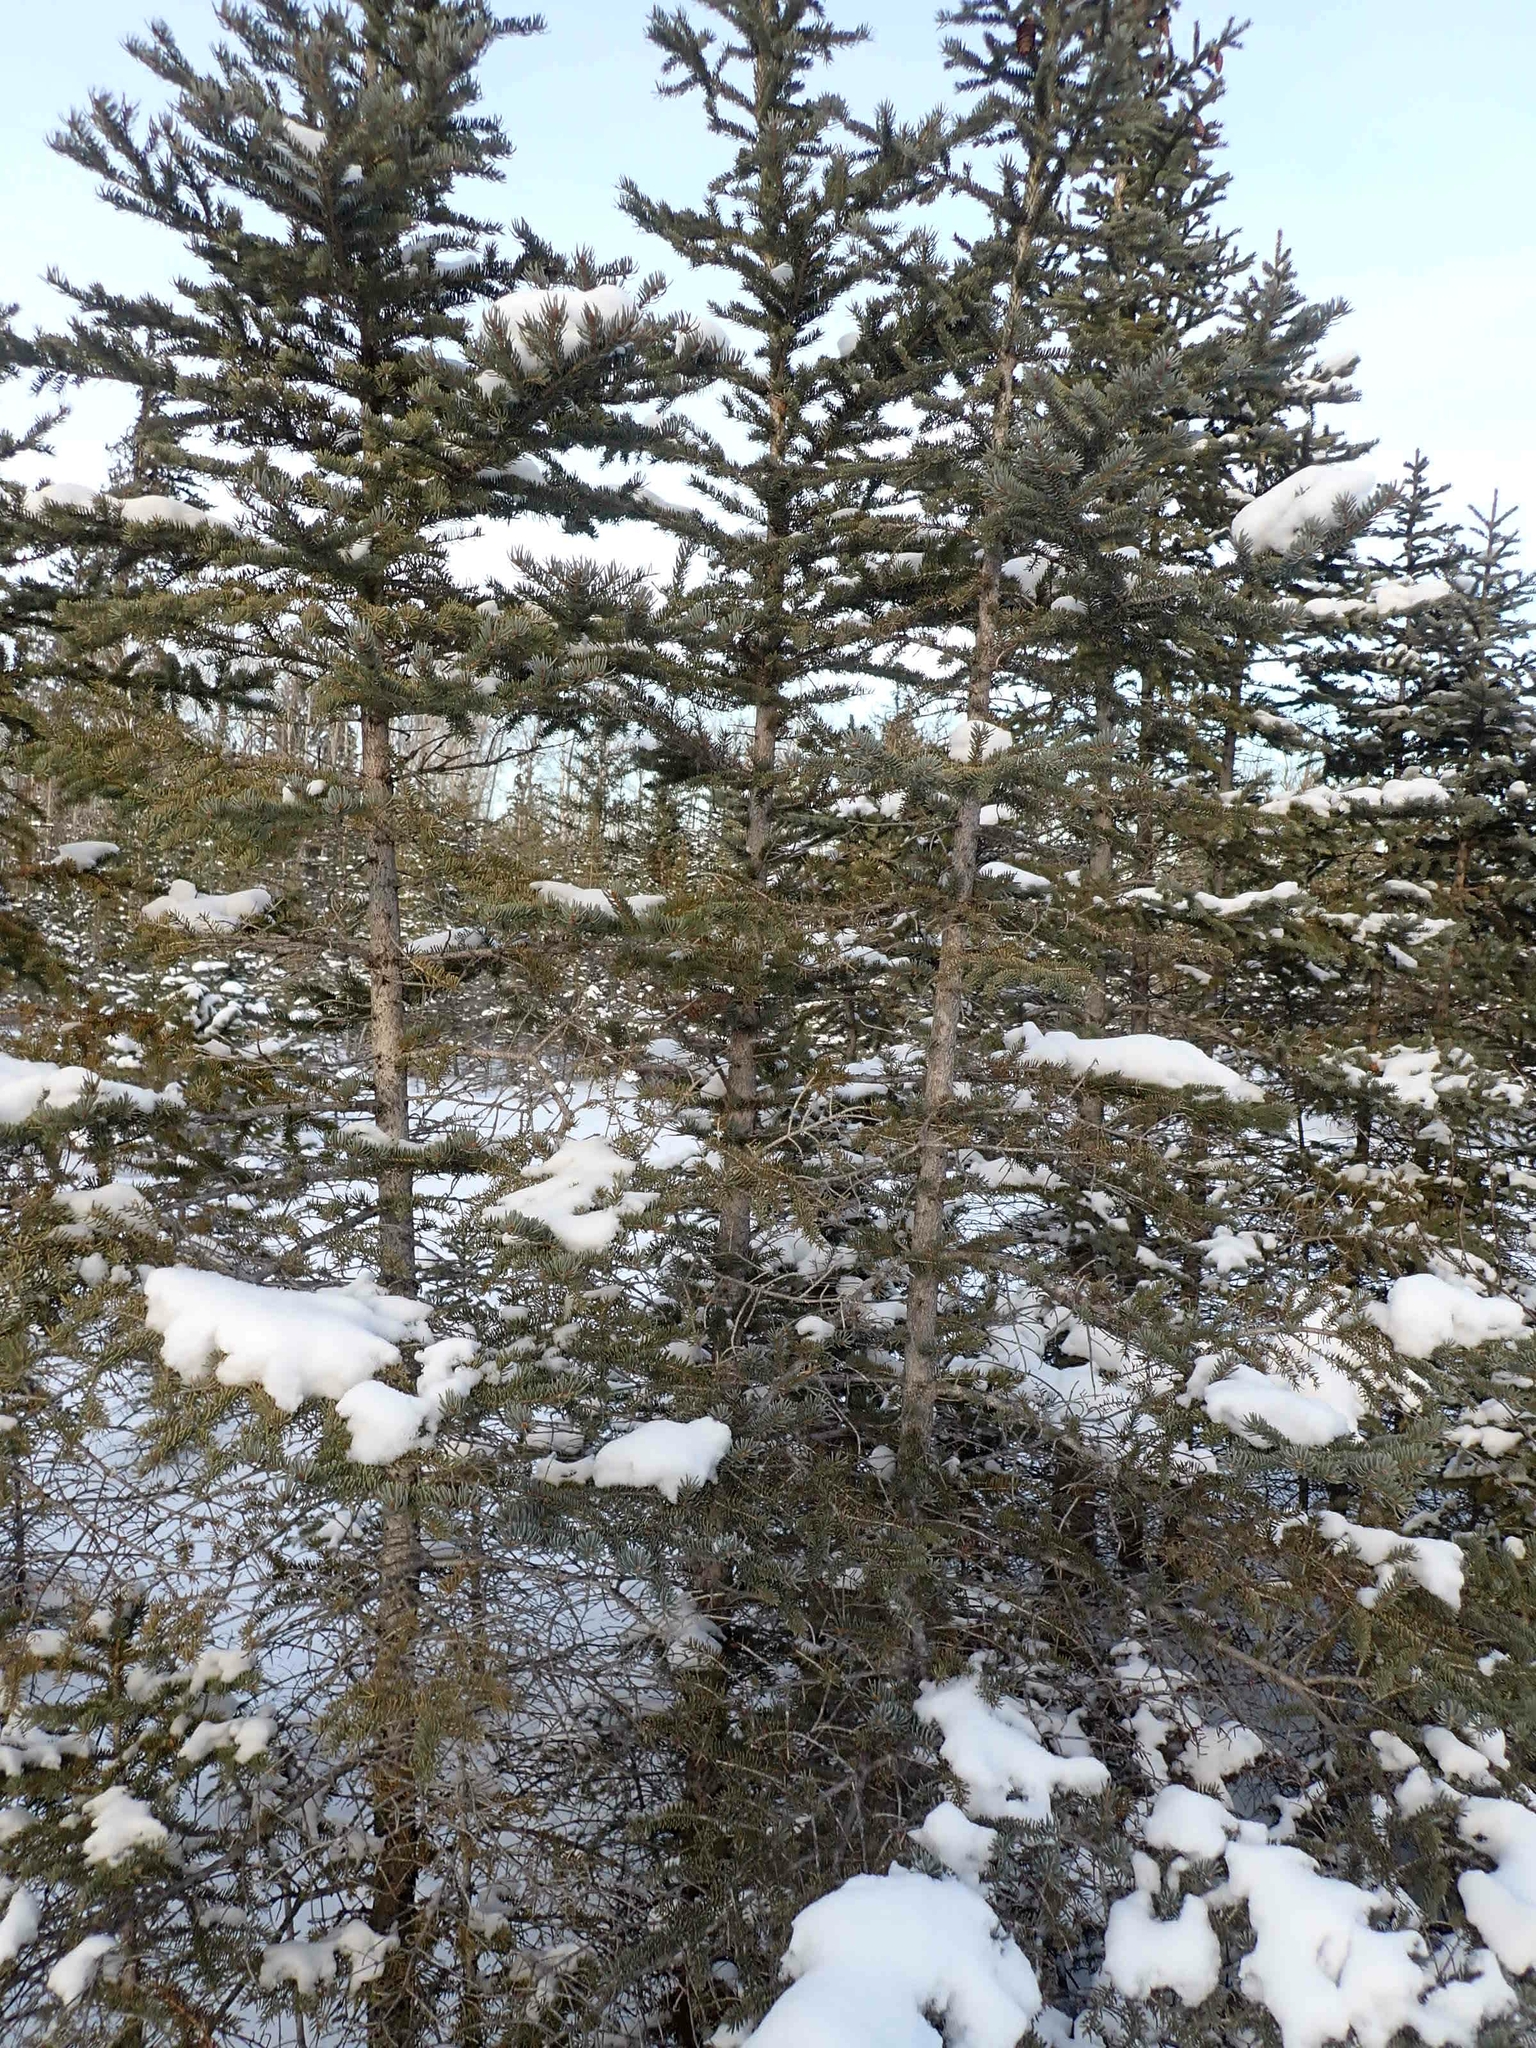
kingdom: Plantae
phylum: Tracheophyta
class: Pinopsida
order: Pinales
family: Pinaceae
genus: Picea
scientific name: Picea glauca
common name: White spruce
